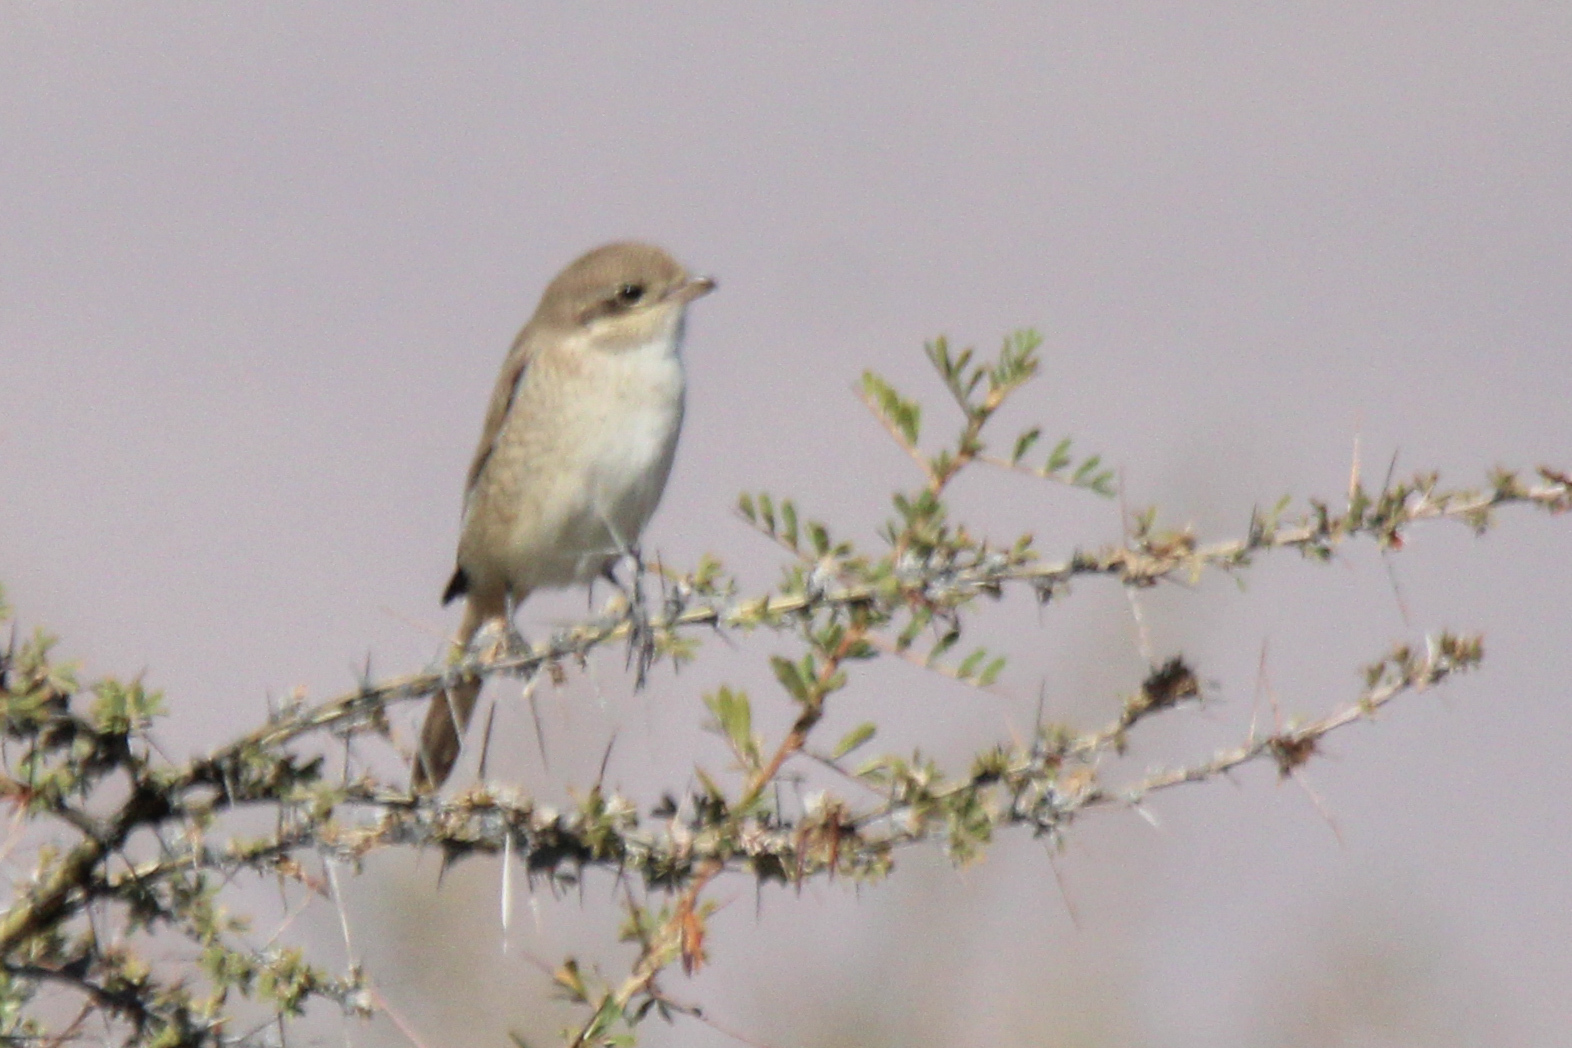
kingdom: Animalia
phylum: Chordata
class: Aves
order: Passeriformes
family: Laniidae
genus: Lanius
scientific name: Lanius isabellinus
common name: Isabelline shrike
